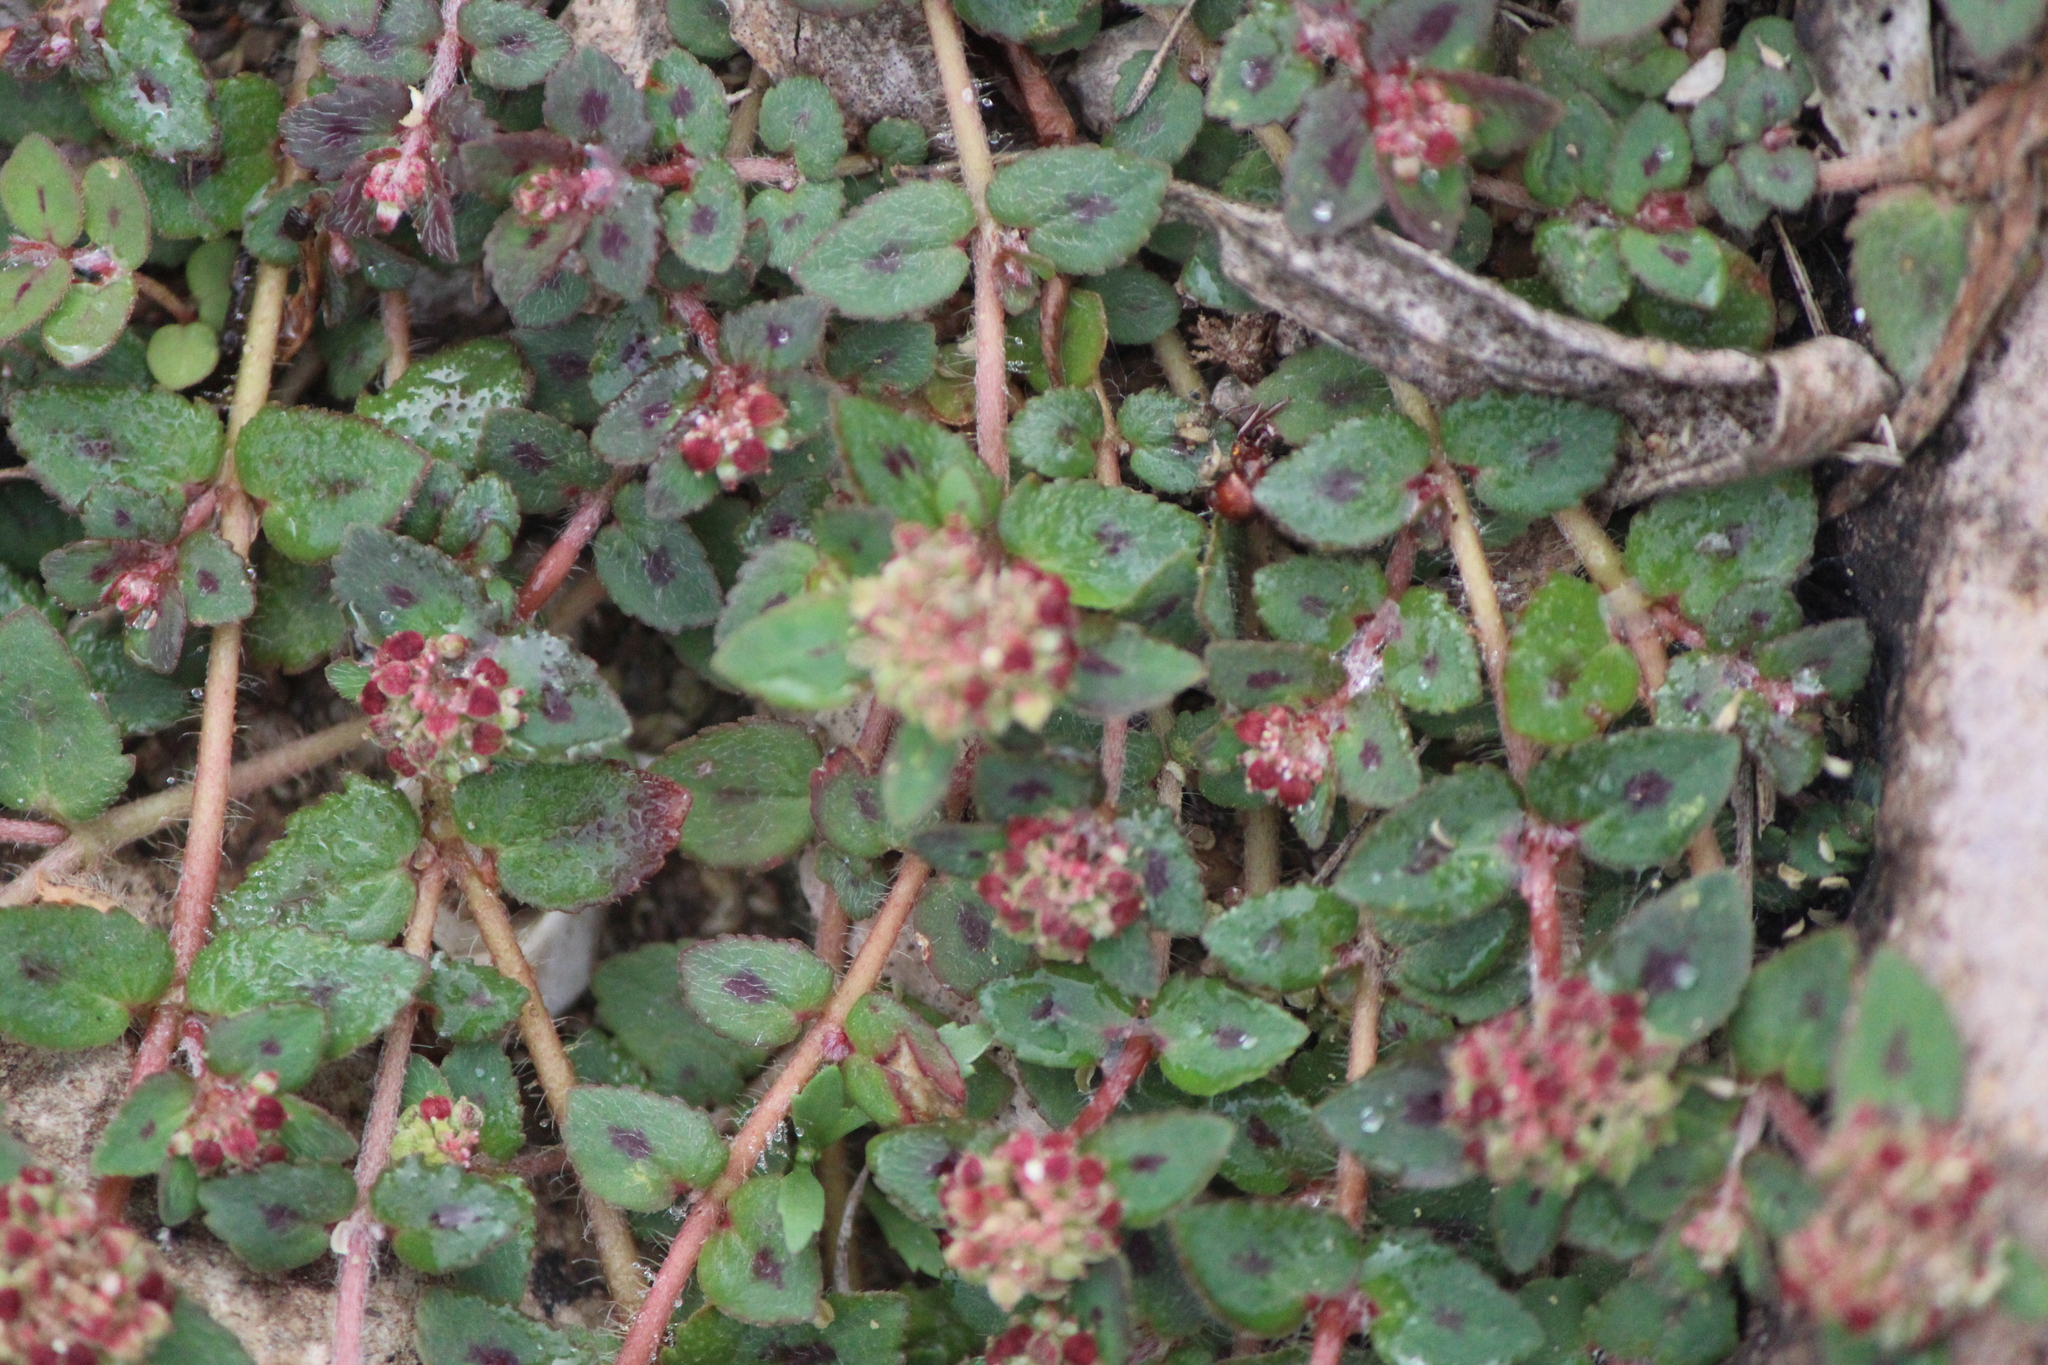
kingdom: Plantae
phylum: Tracheophyta
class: Magnoliopsida
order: Malpighiales
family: Euphorbiaceae
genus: Euphorbia
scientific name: Euphorbia ophthalmica
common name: Florida hammock sandmat
